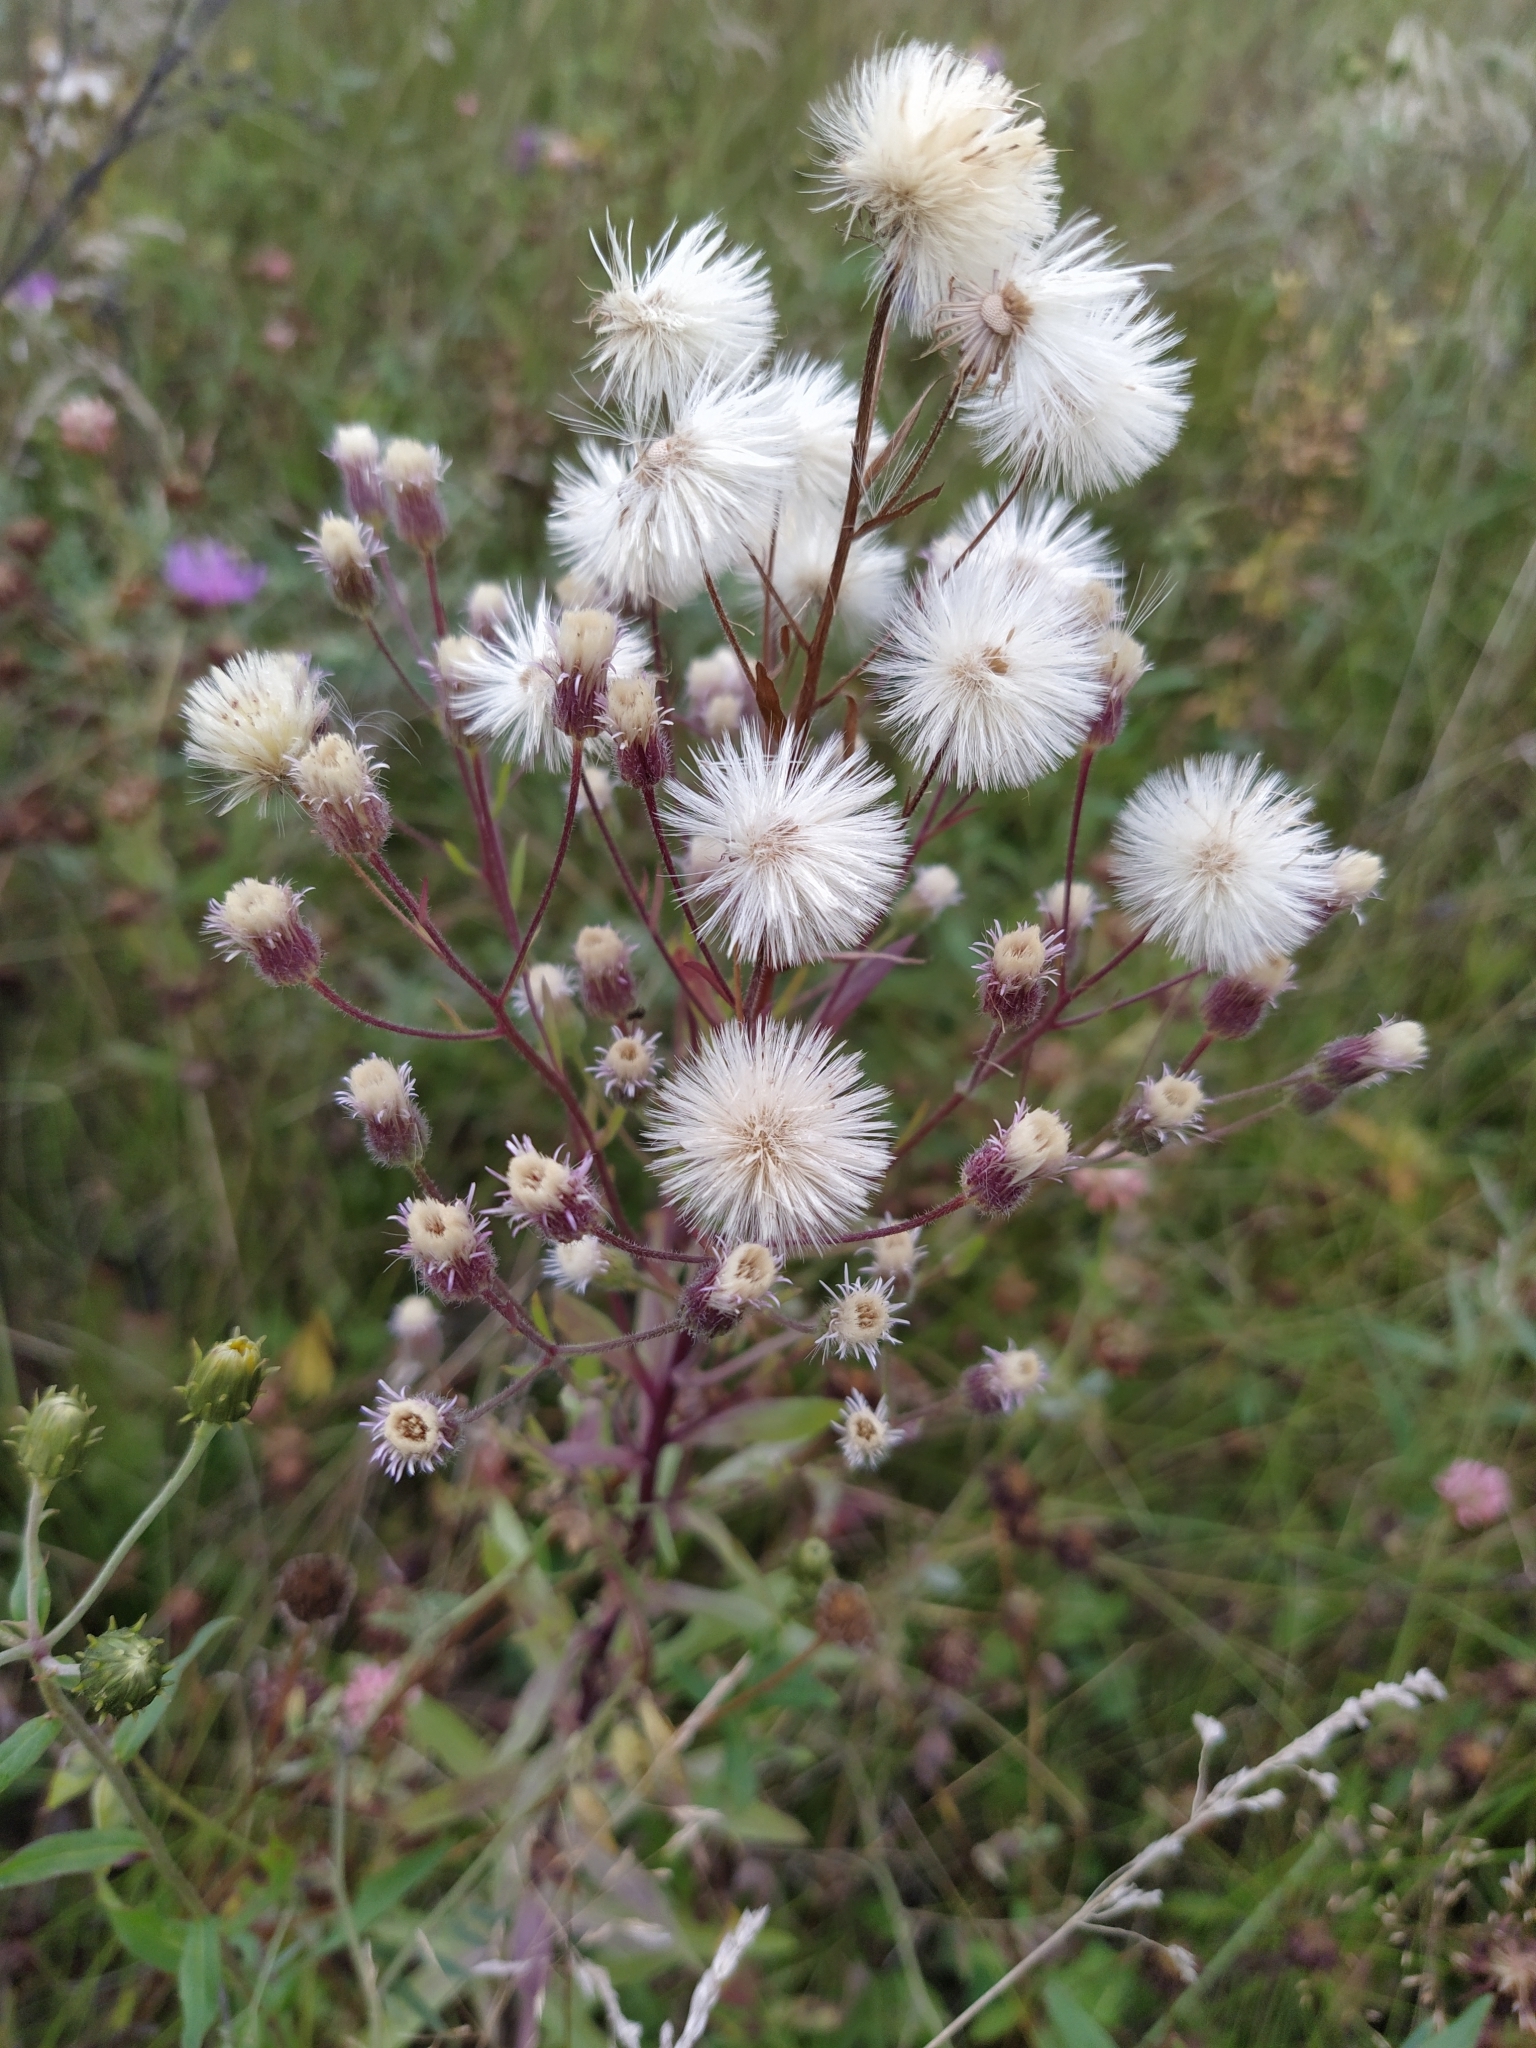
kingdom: Plantae
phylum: Tracheophyta
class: Magnoliopsida
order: Asterales
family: Asteraceae
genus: Erigeron
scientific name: Erigeron acris
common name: Blue fleabane
